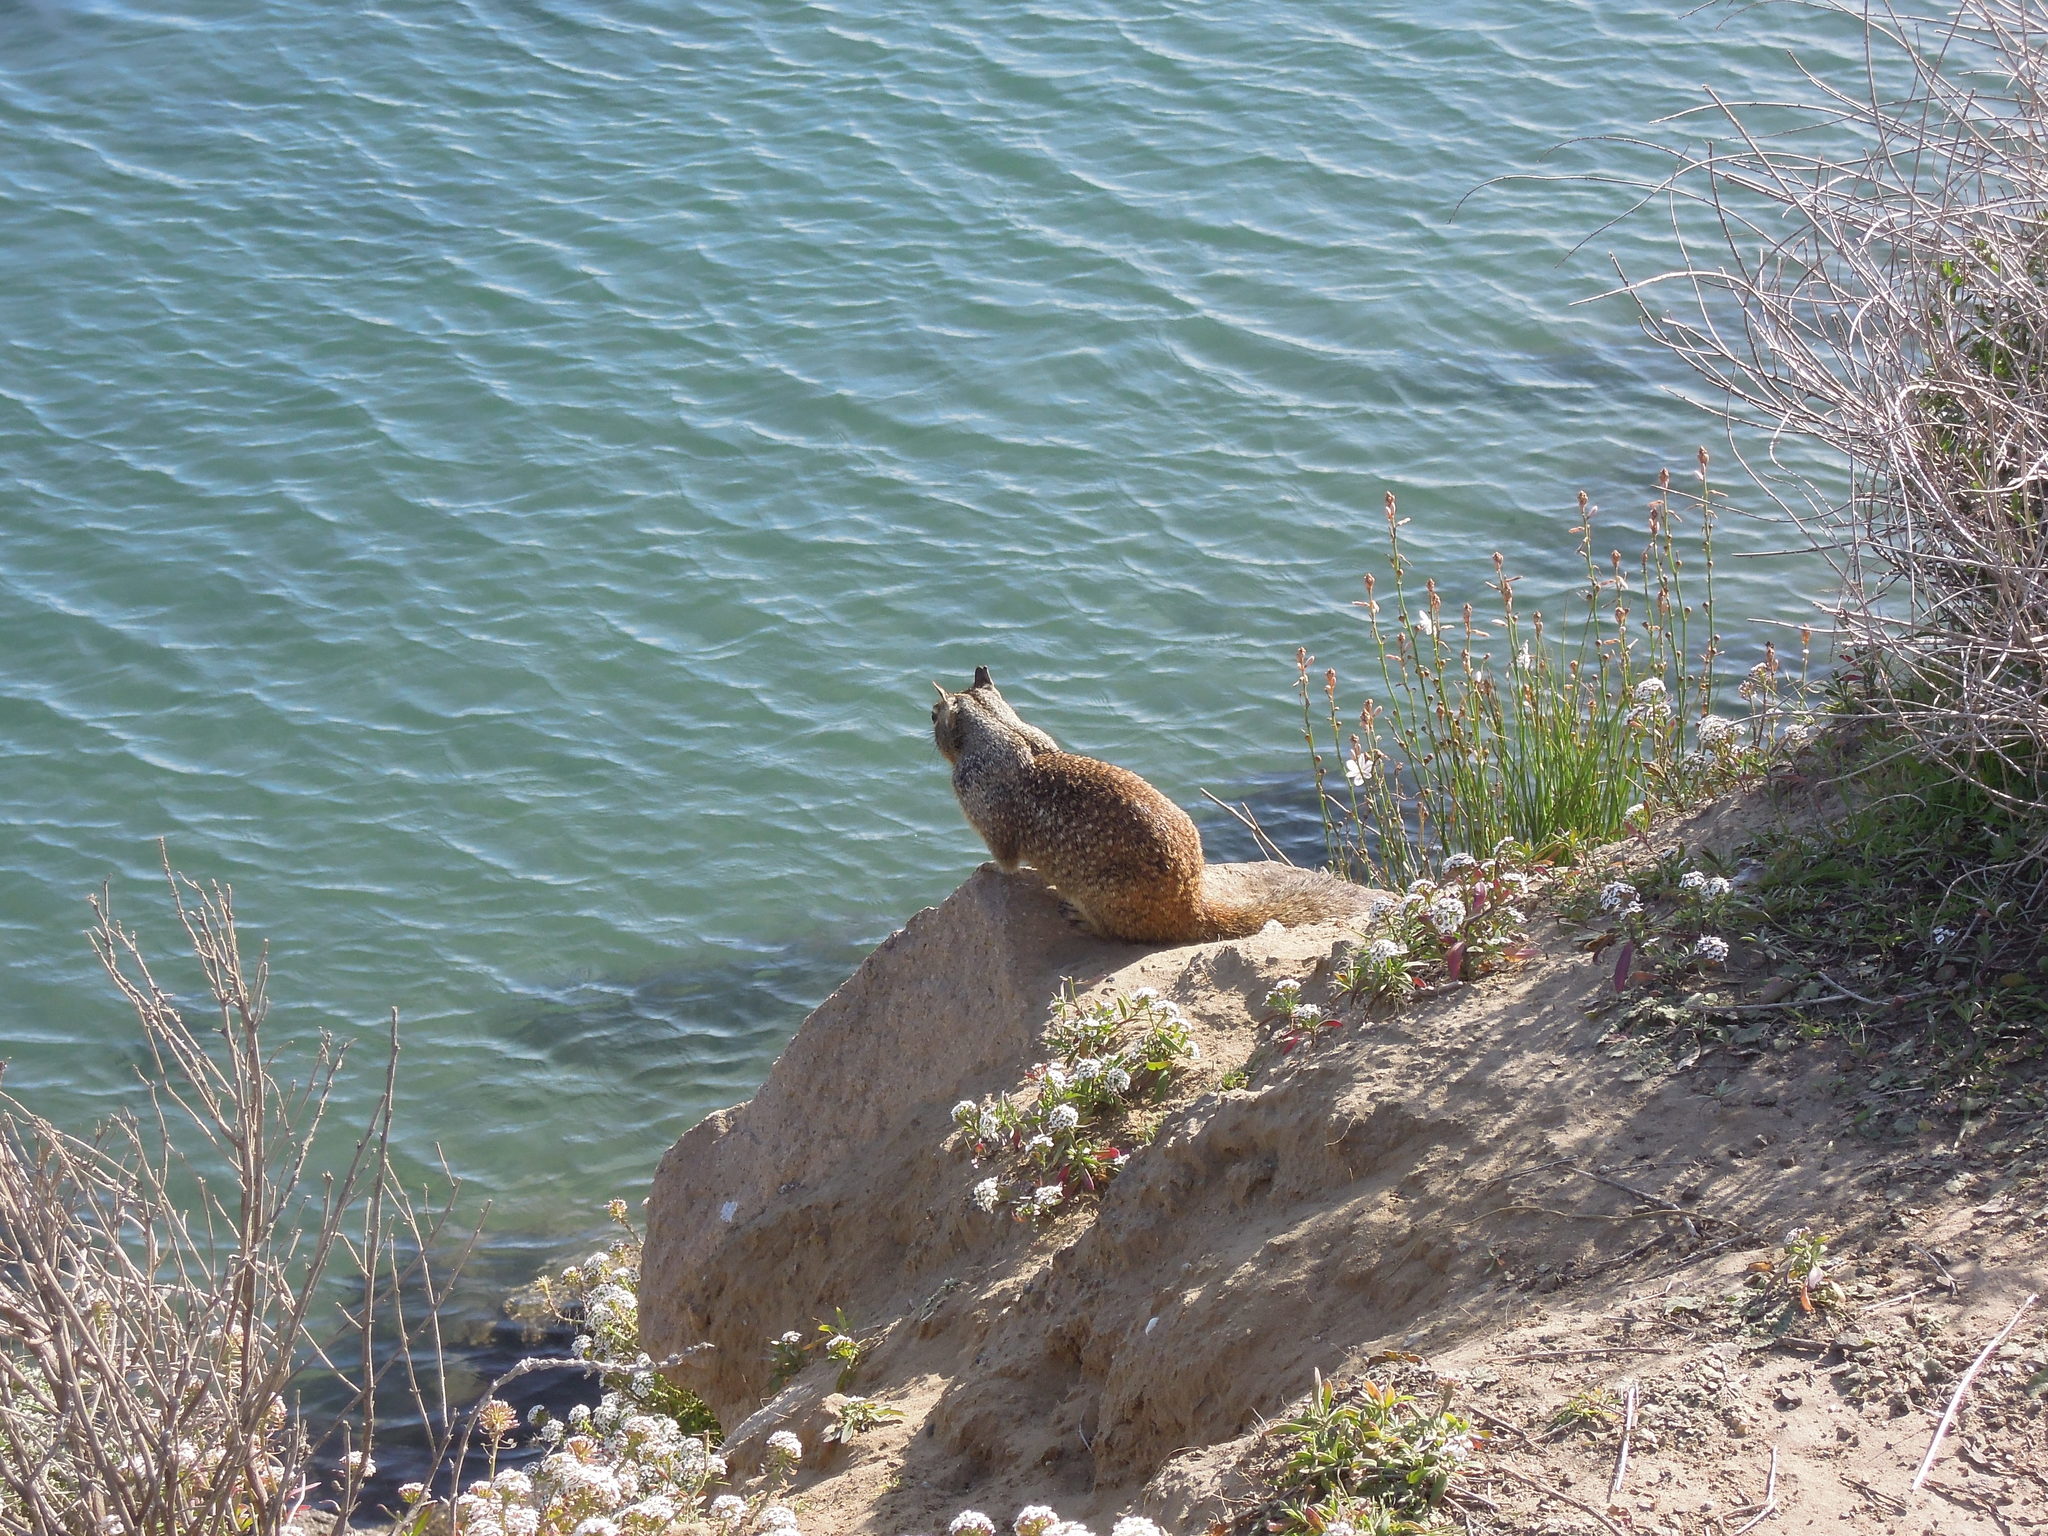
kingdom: Animalia
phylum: Chordata
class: Mammalia
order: Rodentia
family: Sciuridae
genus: Otospermophilus
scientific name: Otospermophilus beecheyi
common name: California ground squirrel
